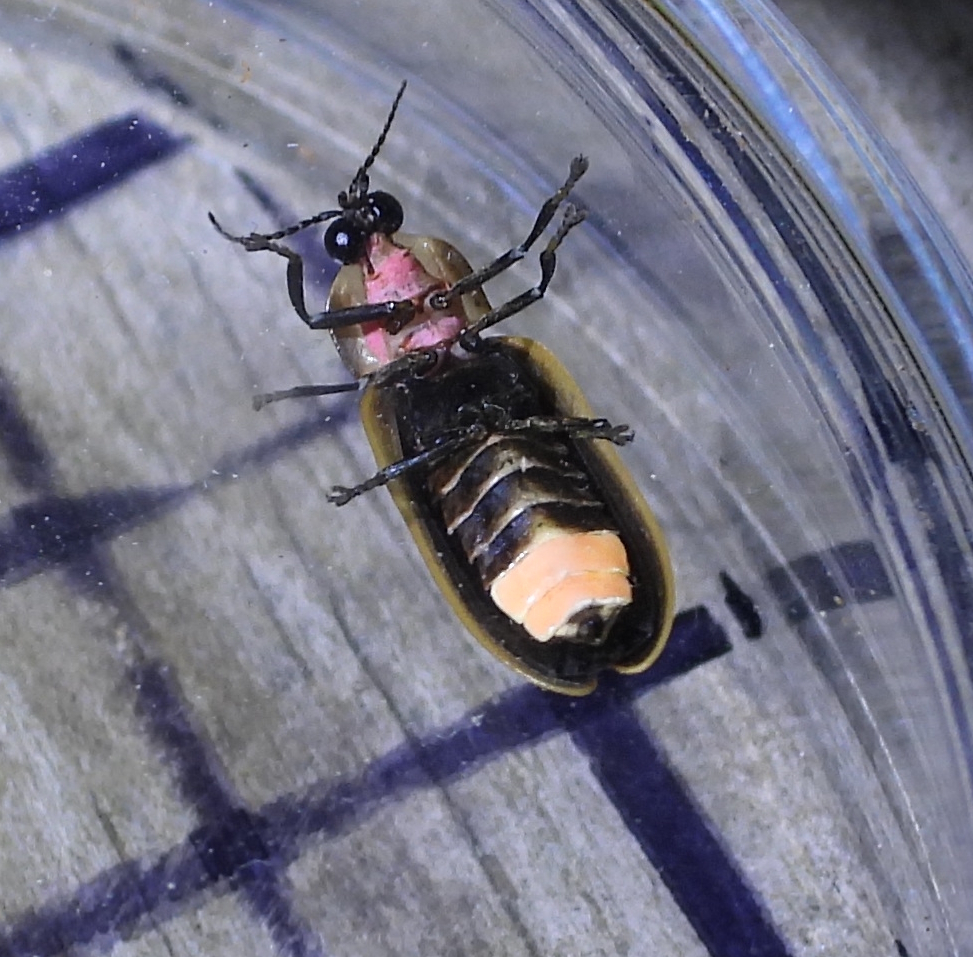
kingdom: Animalia
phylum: Arthropoda
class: Insecta
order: Coleoptera
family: Lampyridae
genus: Pyractomena
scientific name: Pyractomena borealis
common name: Northern firefly
